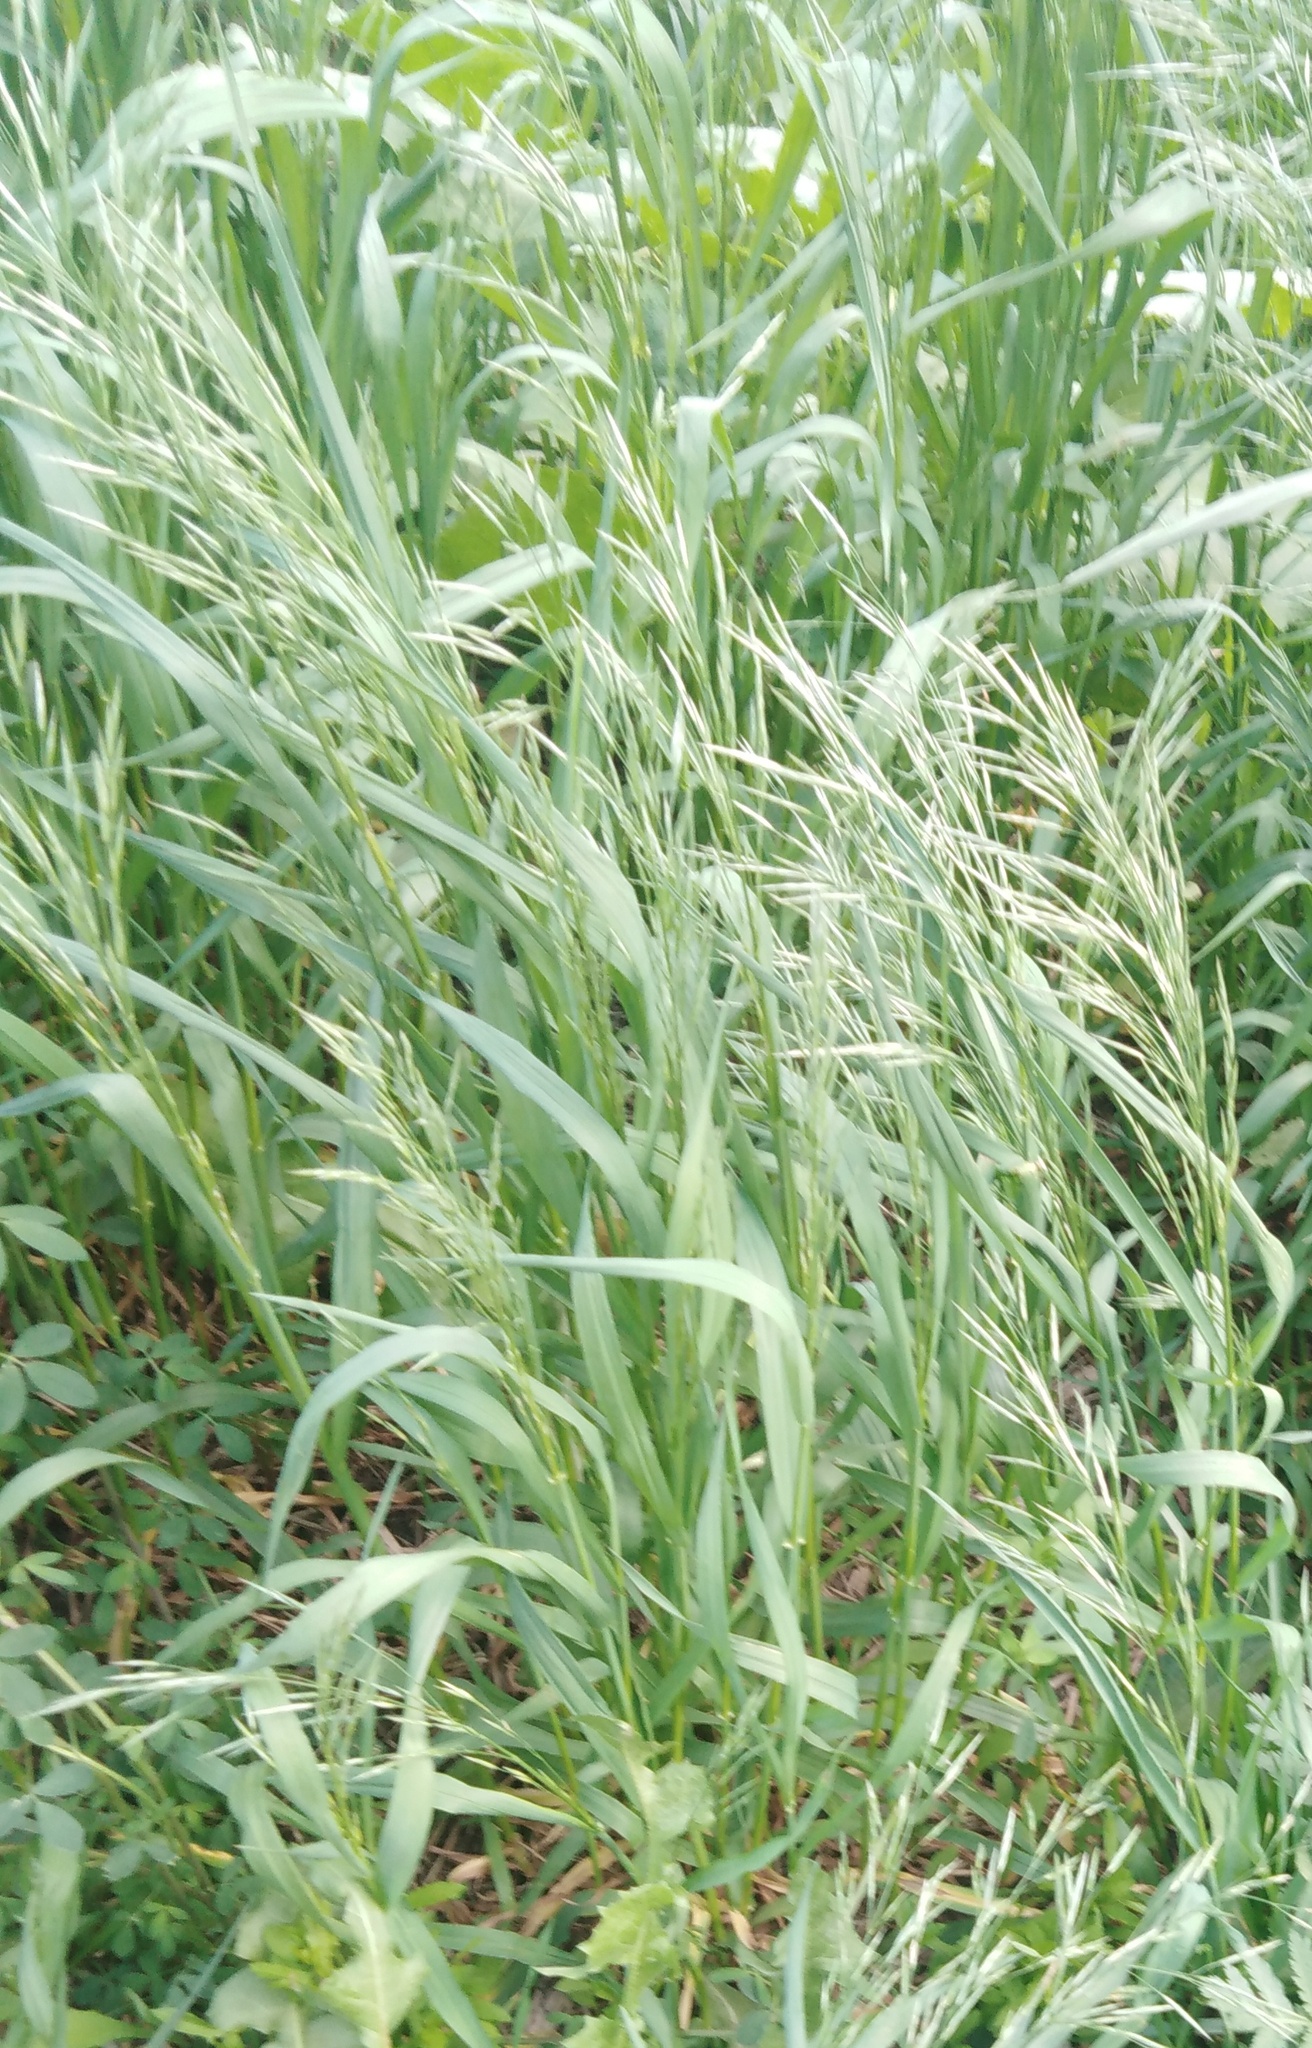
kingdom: Plantae
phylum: Tracheophyta
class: Liliopsida
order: Poales
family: Poaceae
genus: Bromus
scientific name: Bromus inermis
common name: Smooth brome
